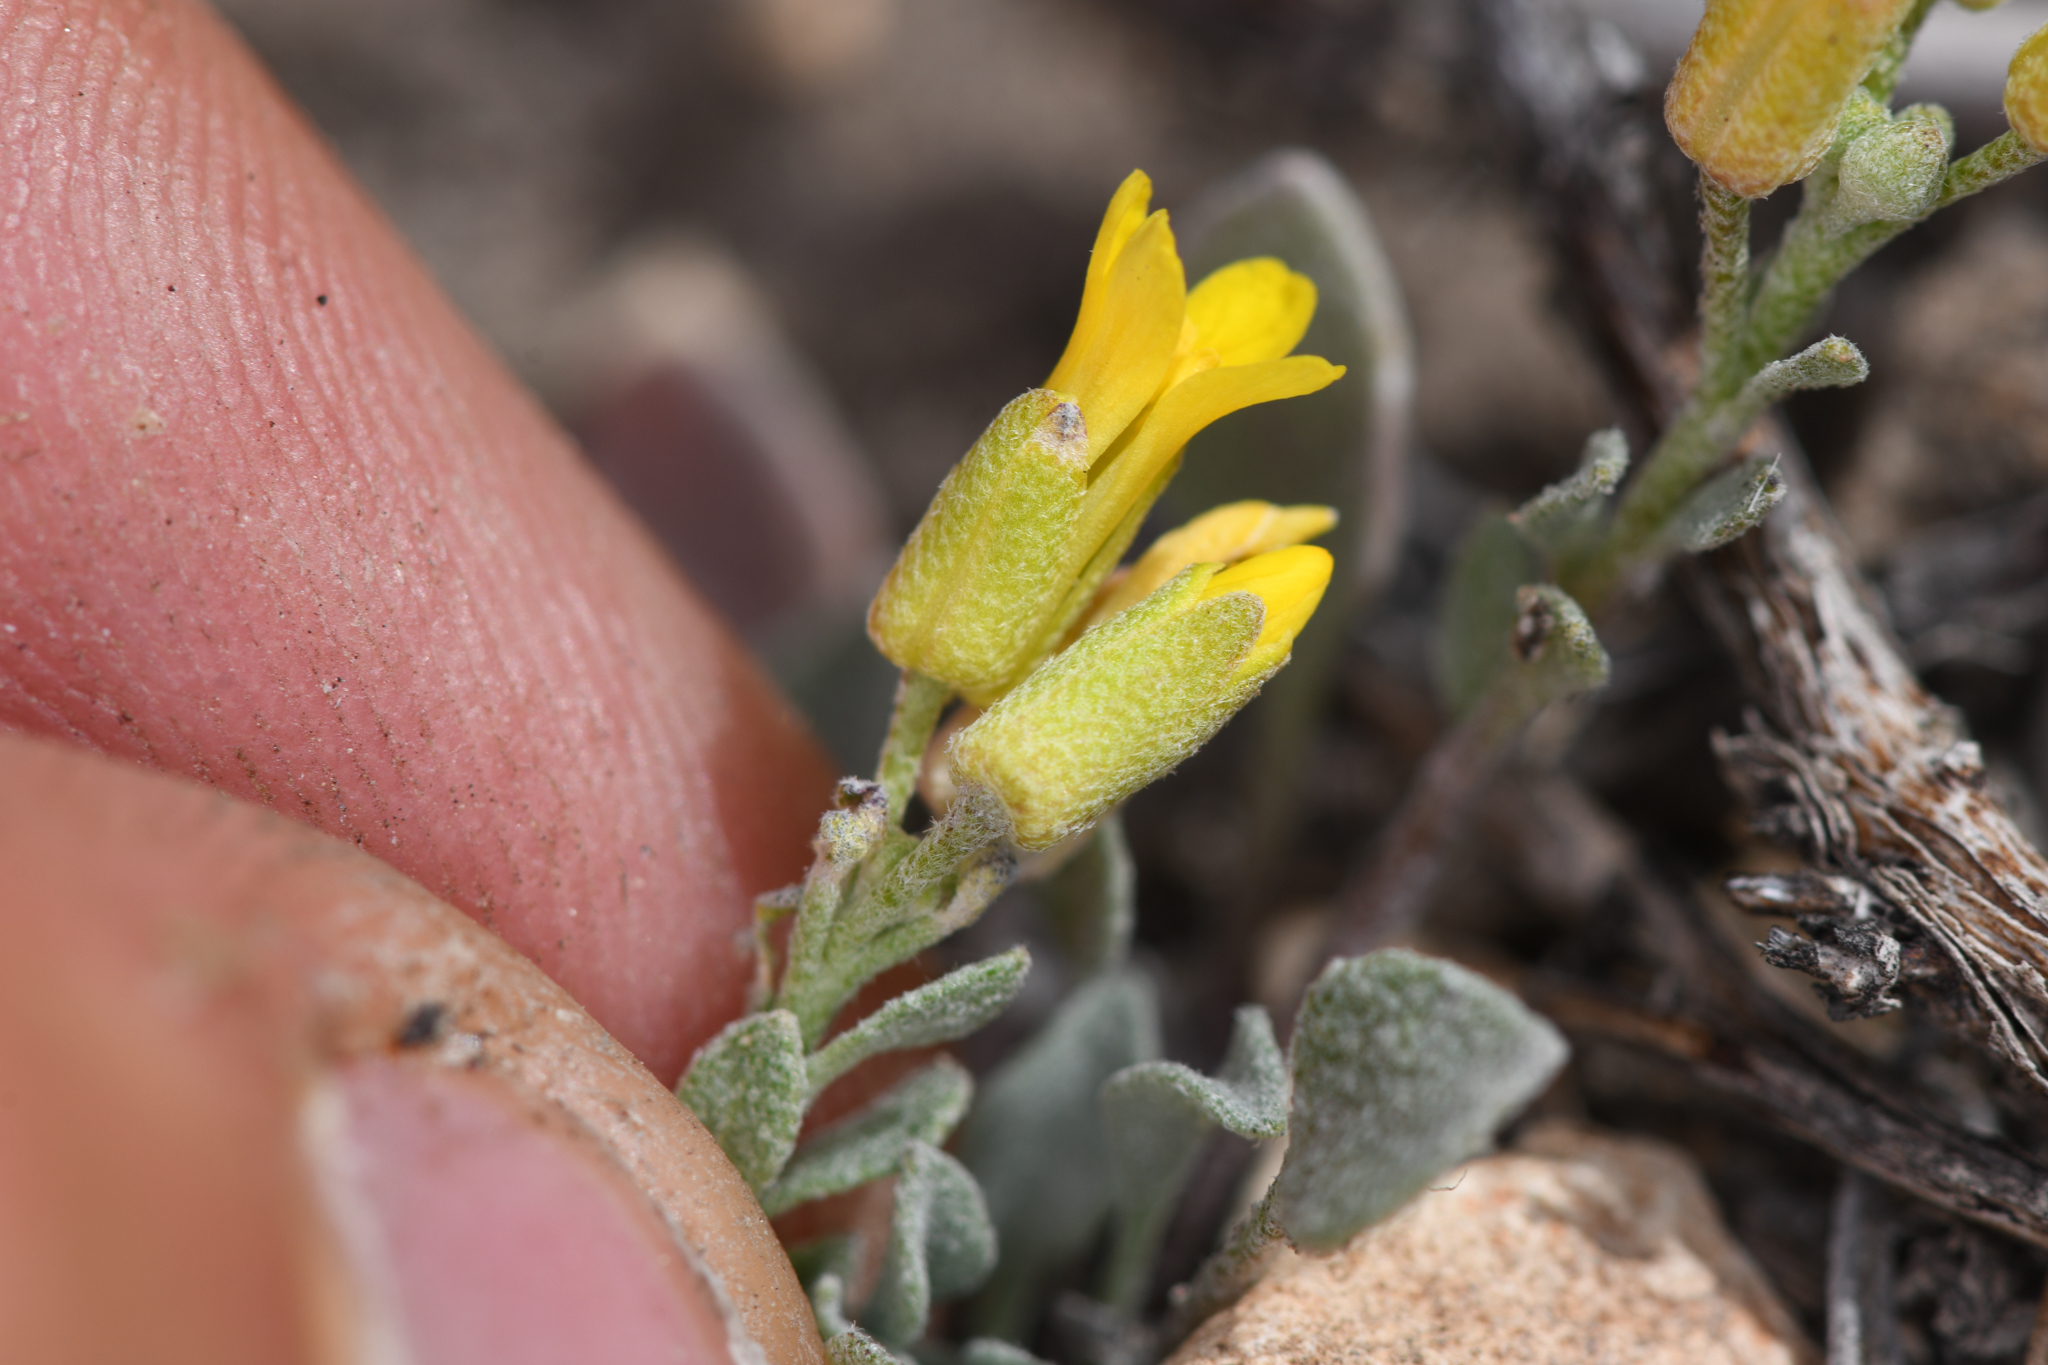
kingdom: Plantae
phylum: Tracheophyta
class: Magnoliopsida
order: Brassicales
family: Brassicaceae
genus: Physaria
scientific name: Physaria kingii
